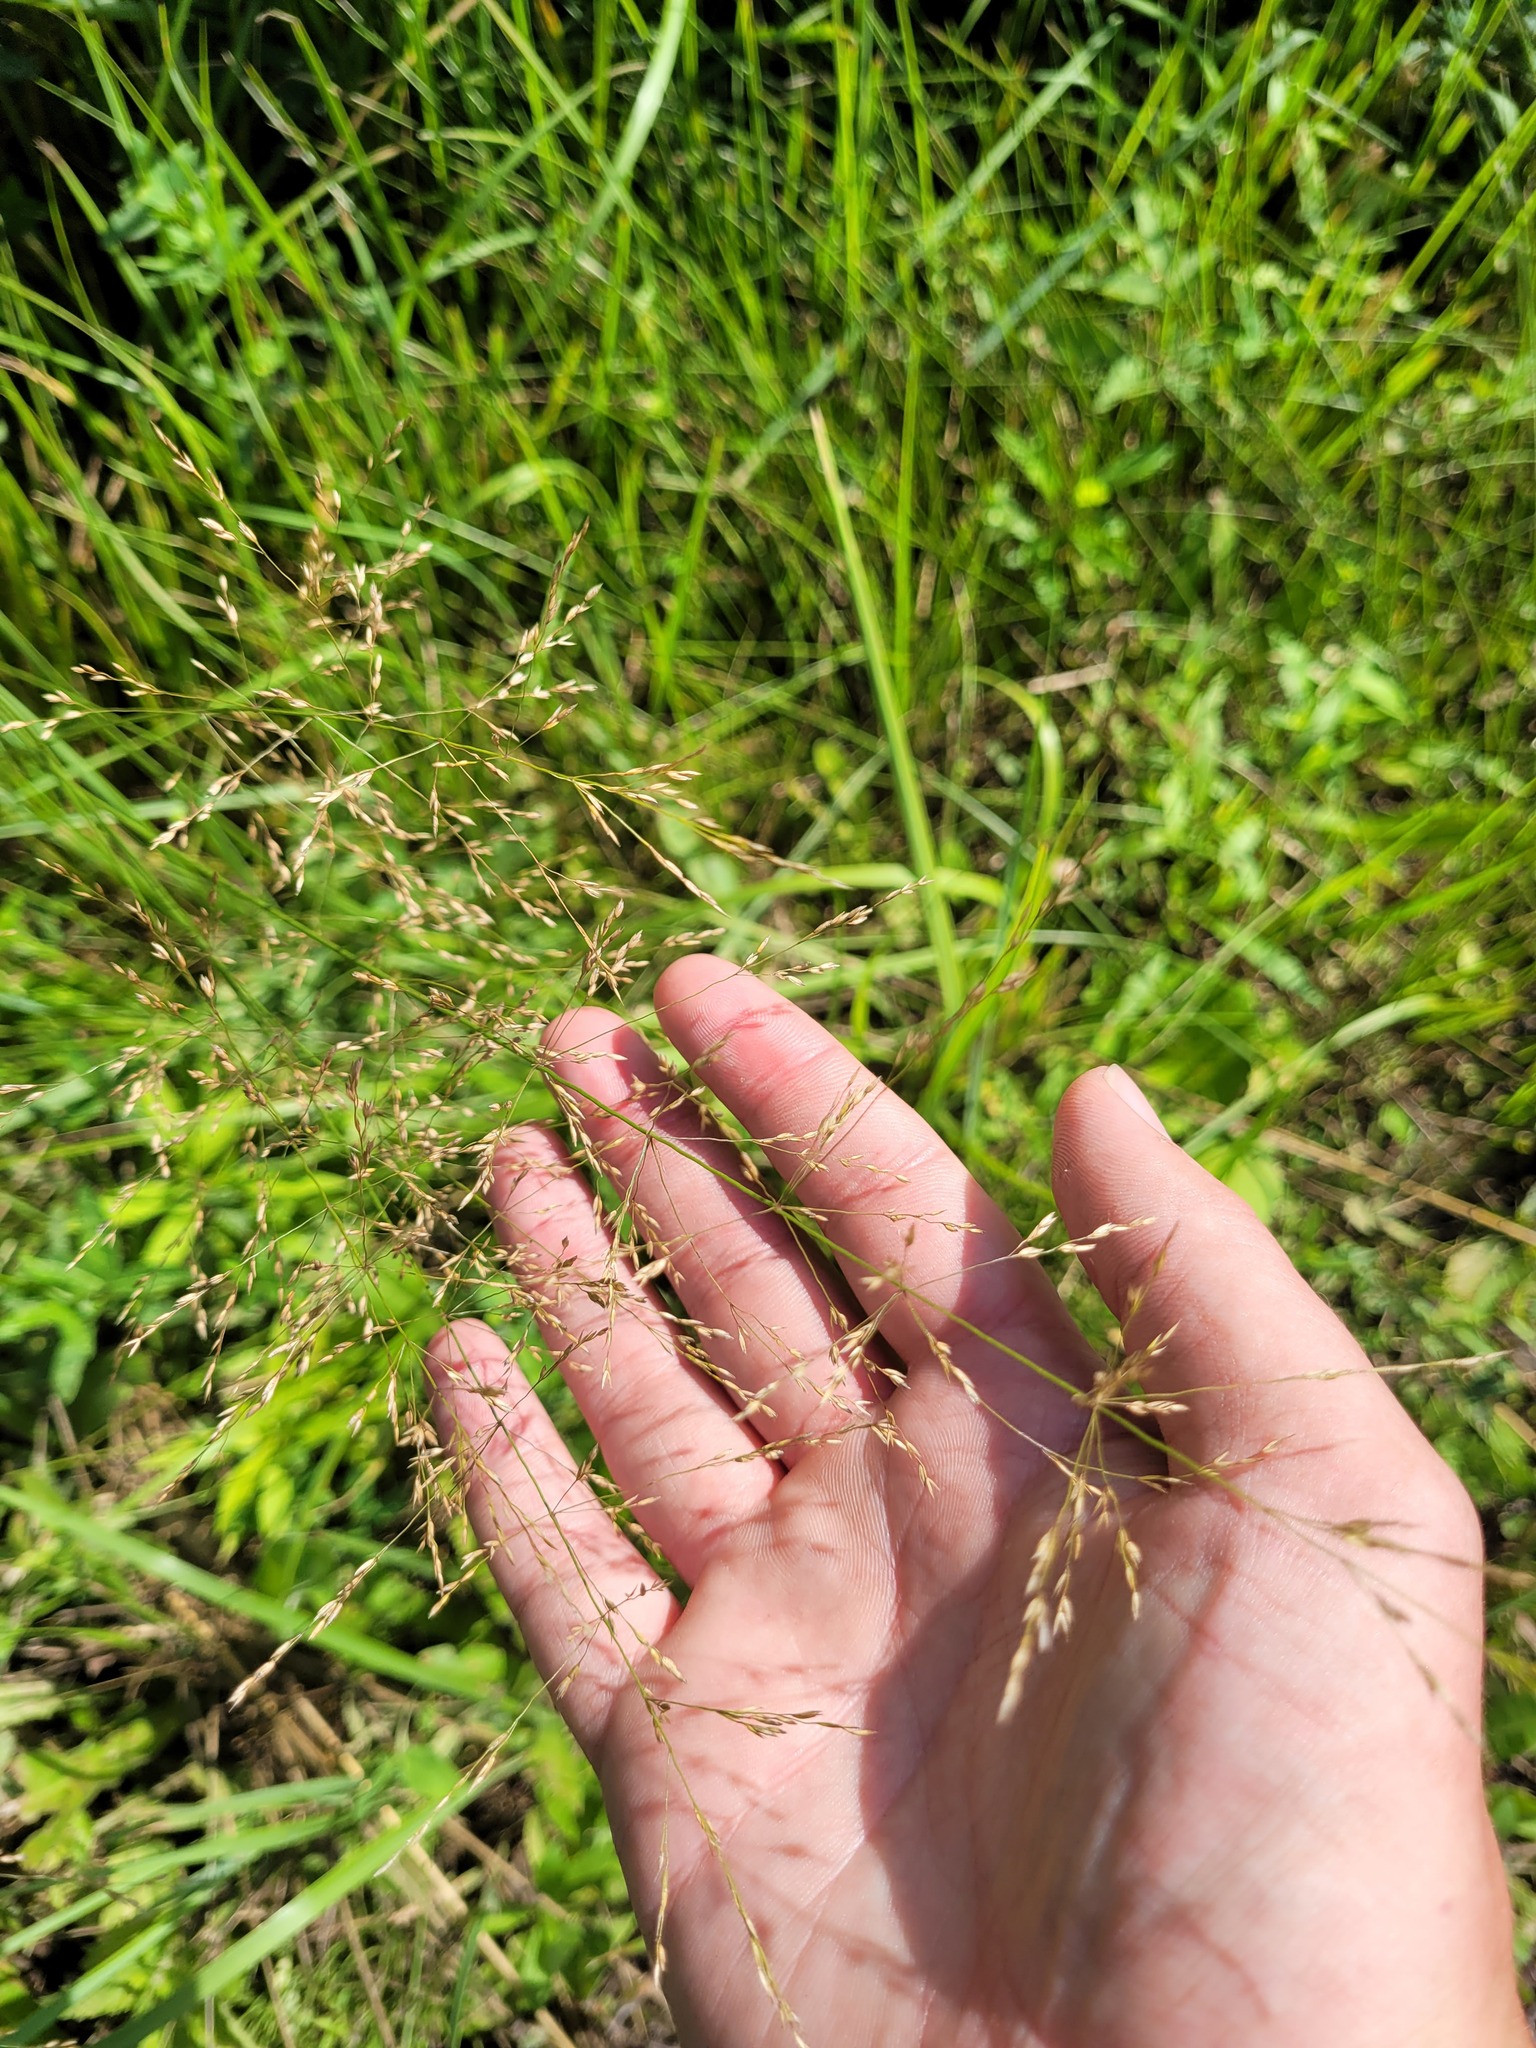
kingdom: Plantae
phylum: Tracheophyta
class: Liliopsida
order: Poales
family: Poaceae
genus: Poa
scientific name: Poa palustris
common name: Swamp meadow-grass
